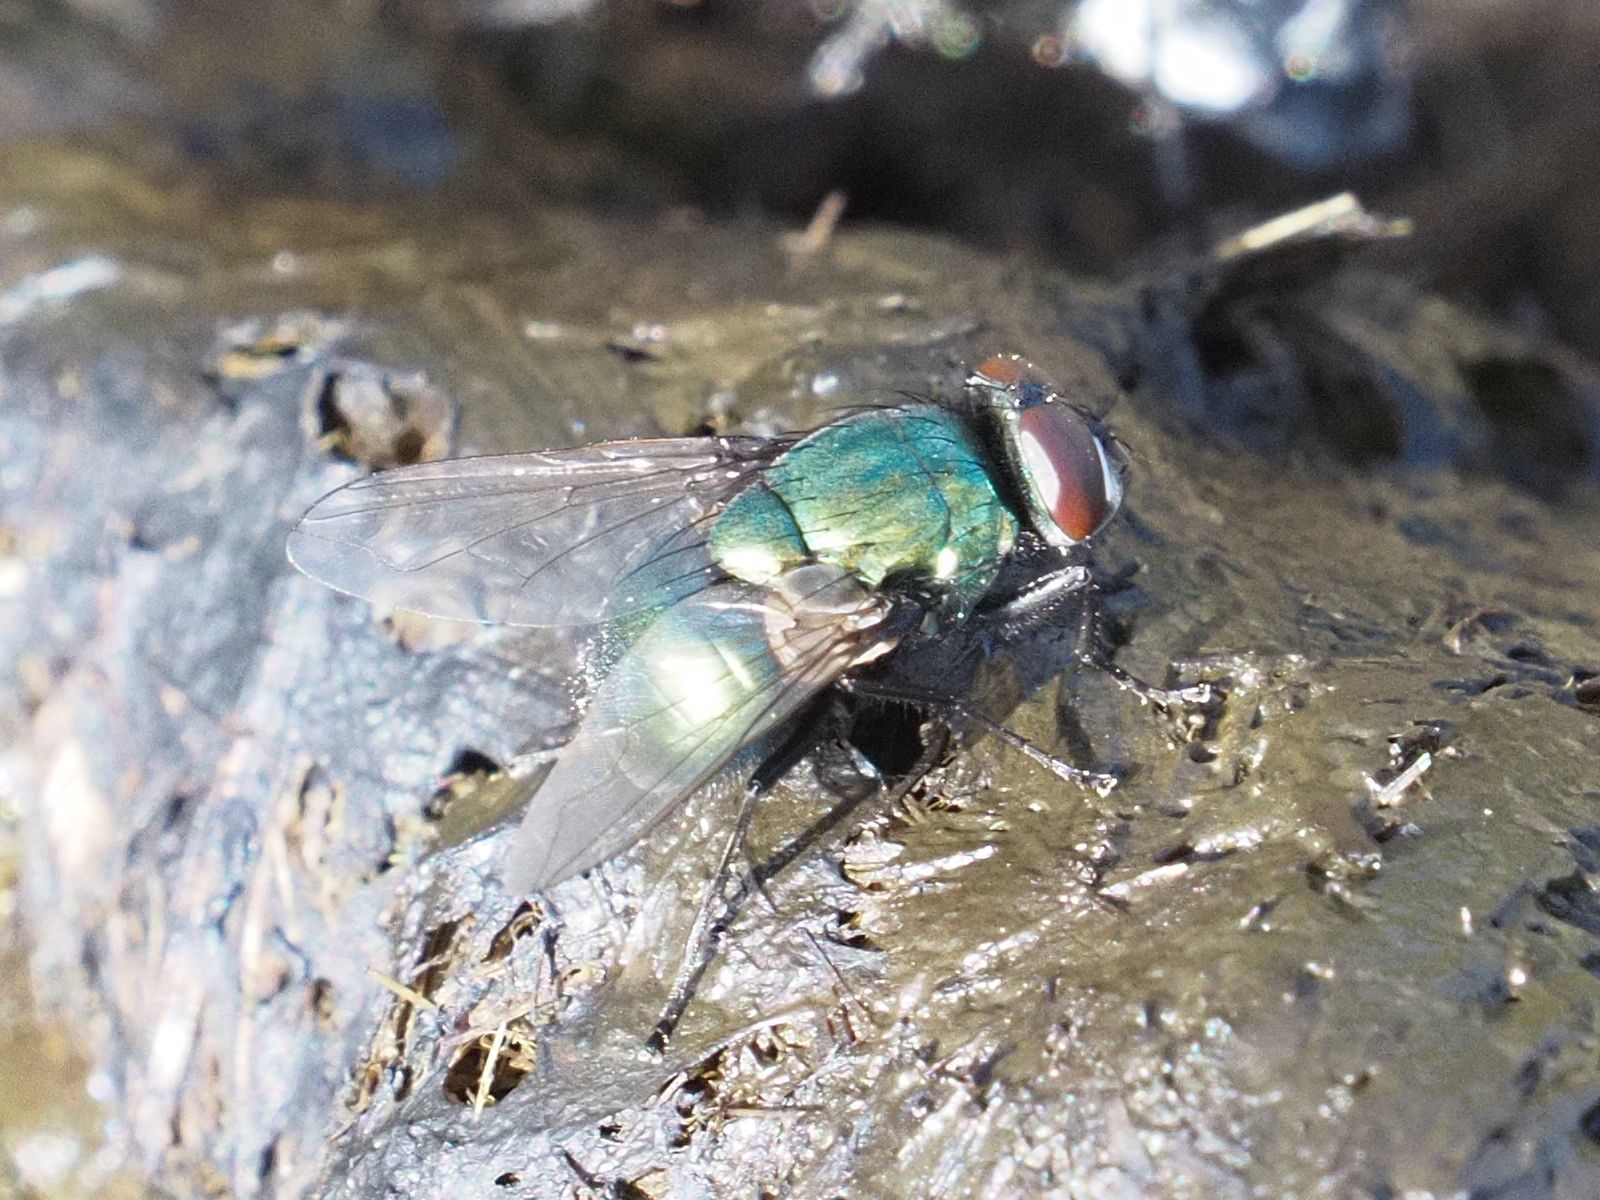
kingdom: Animalia
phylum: Arthropoda
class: Insecta
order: Diptera
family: Muscidae
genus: Neomyia
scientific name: Neomyia cornicina
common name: House fly
